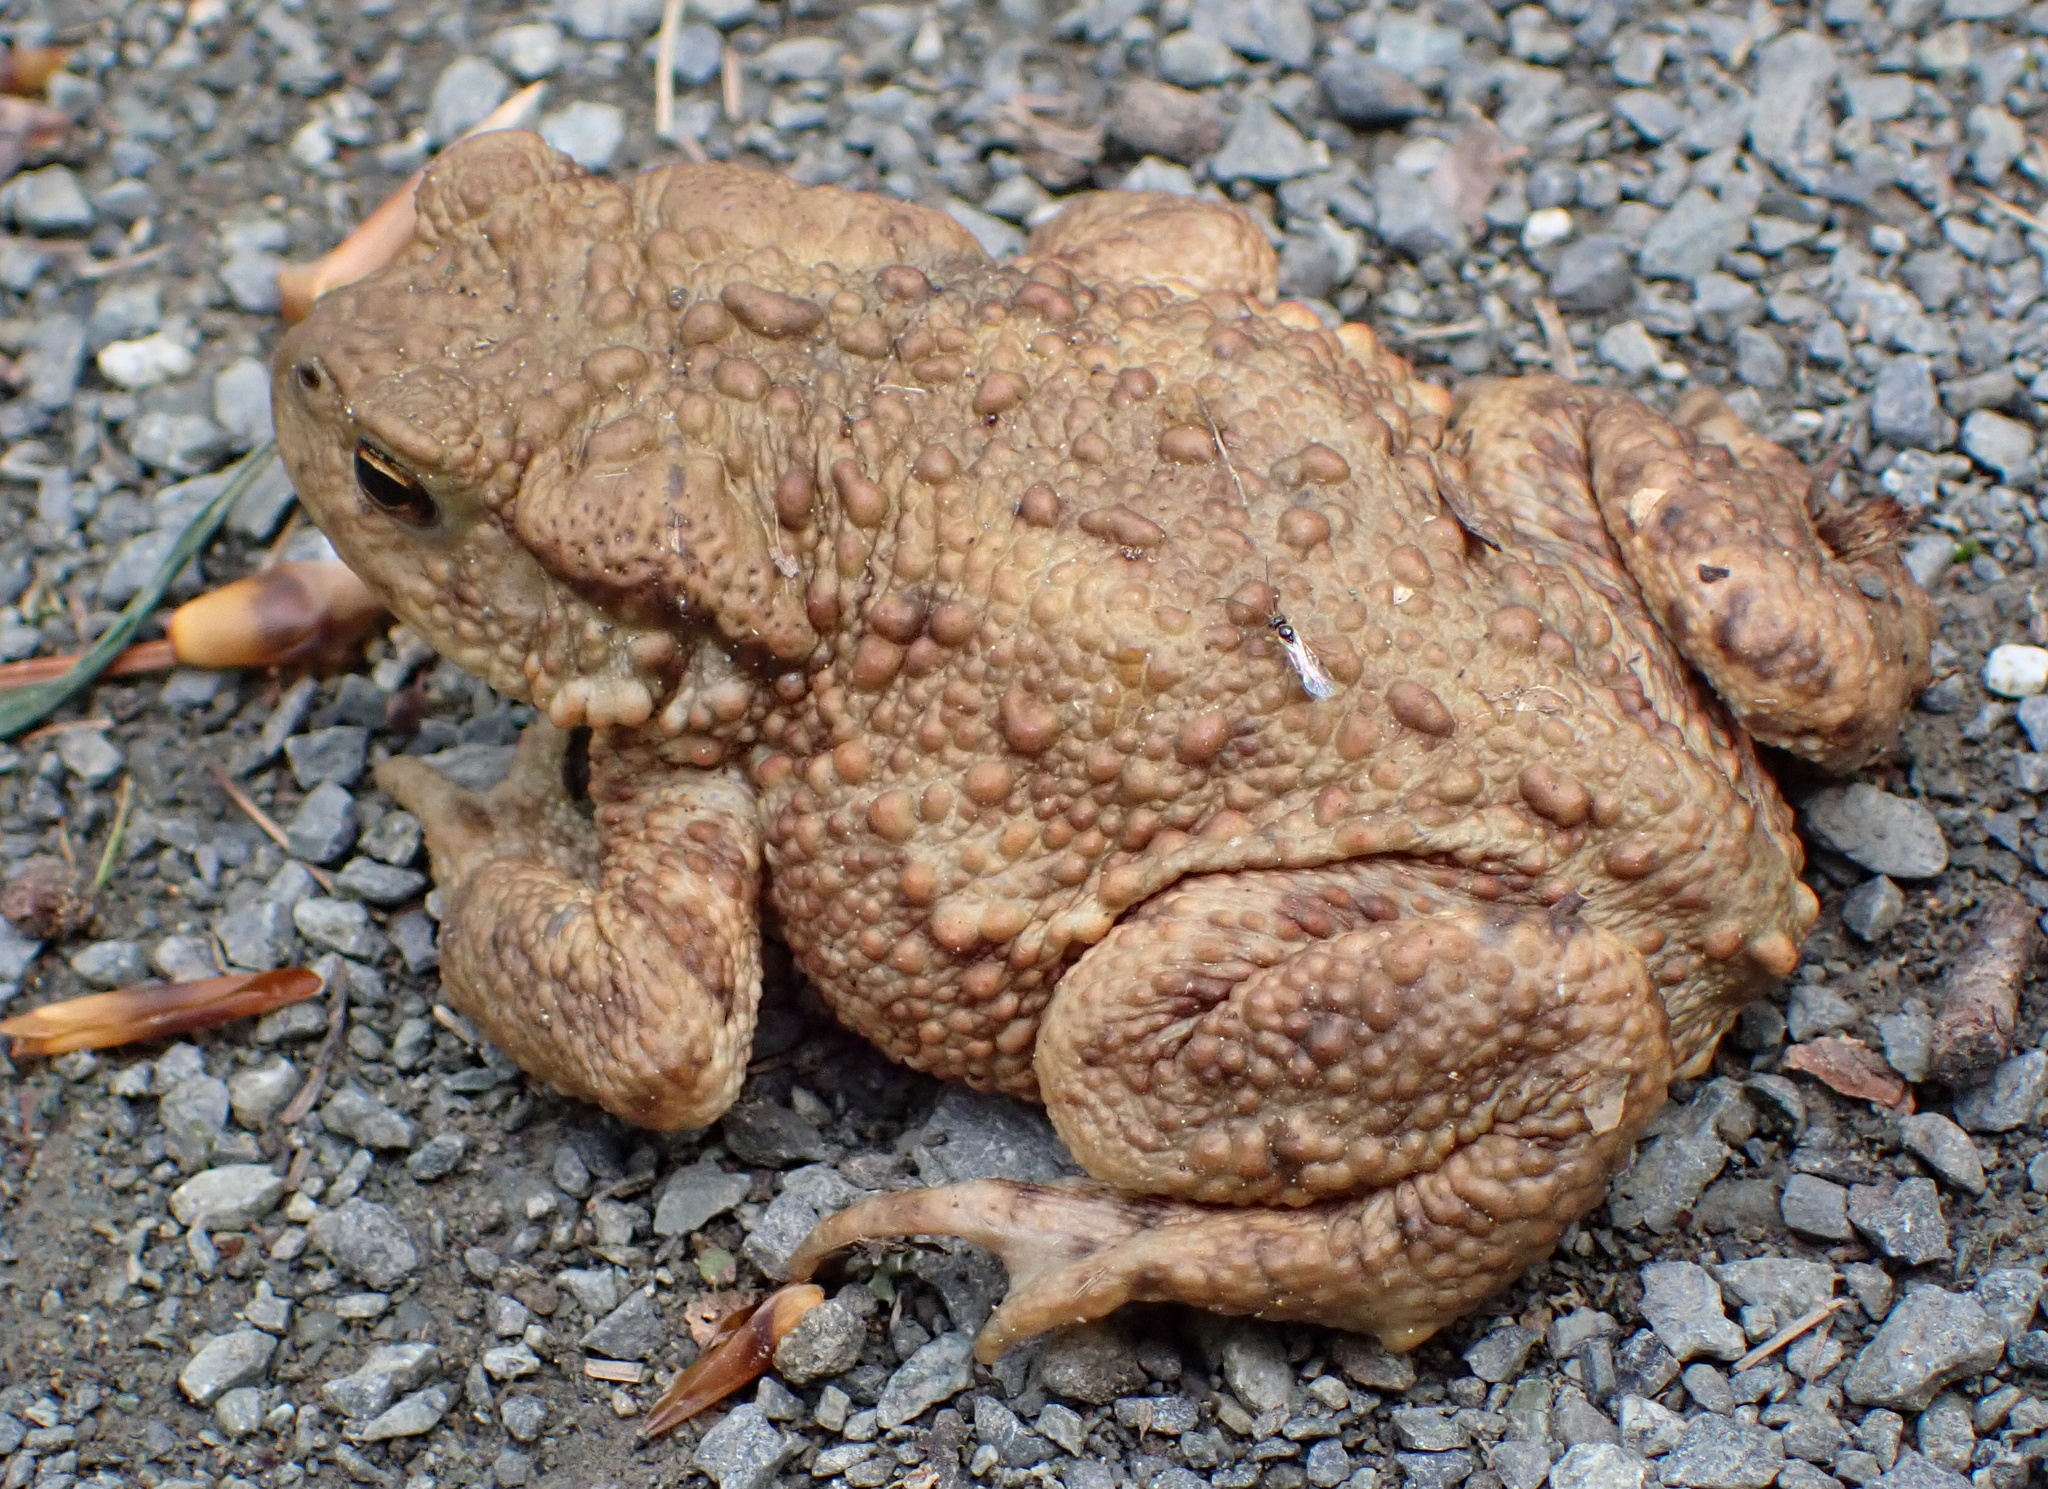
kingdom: Animalia
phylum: Chordata
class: Amphibia
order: Anura
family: Bufonidae
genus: Bufo
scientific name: Bufo bufo
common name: Common toad
